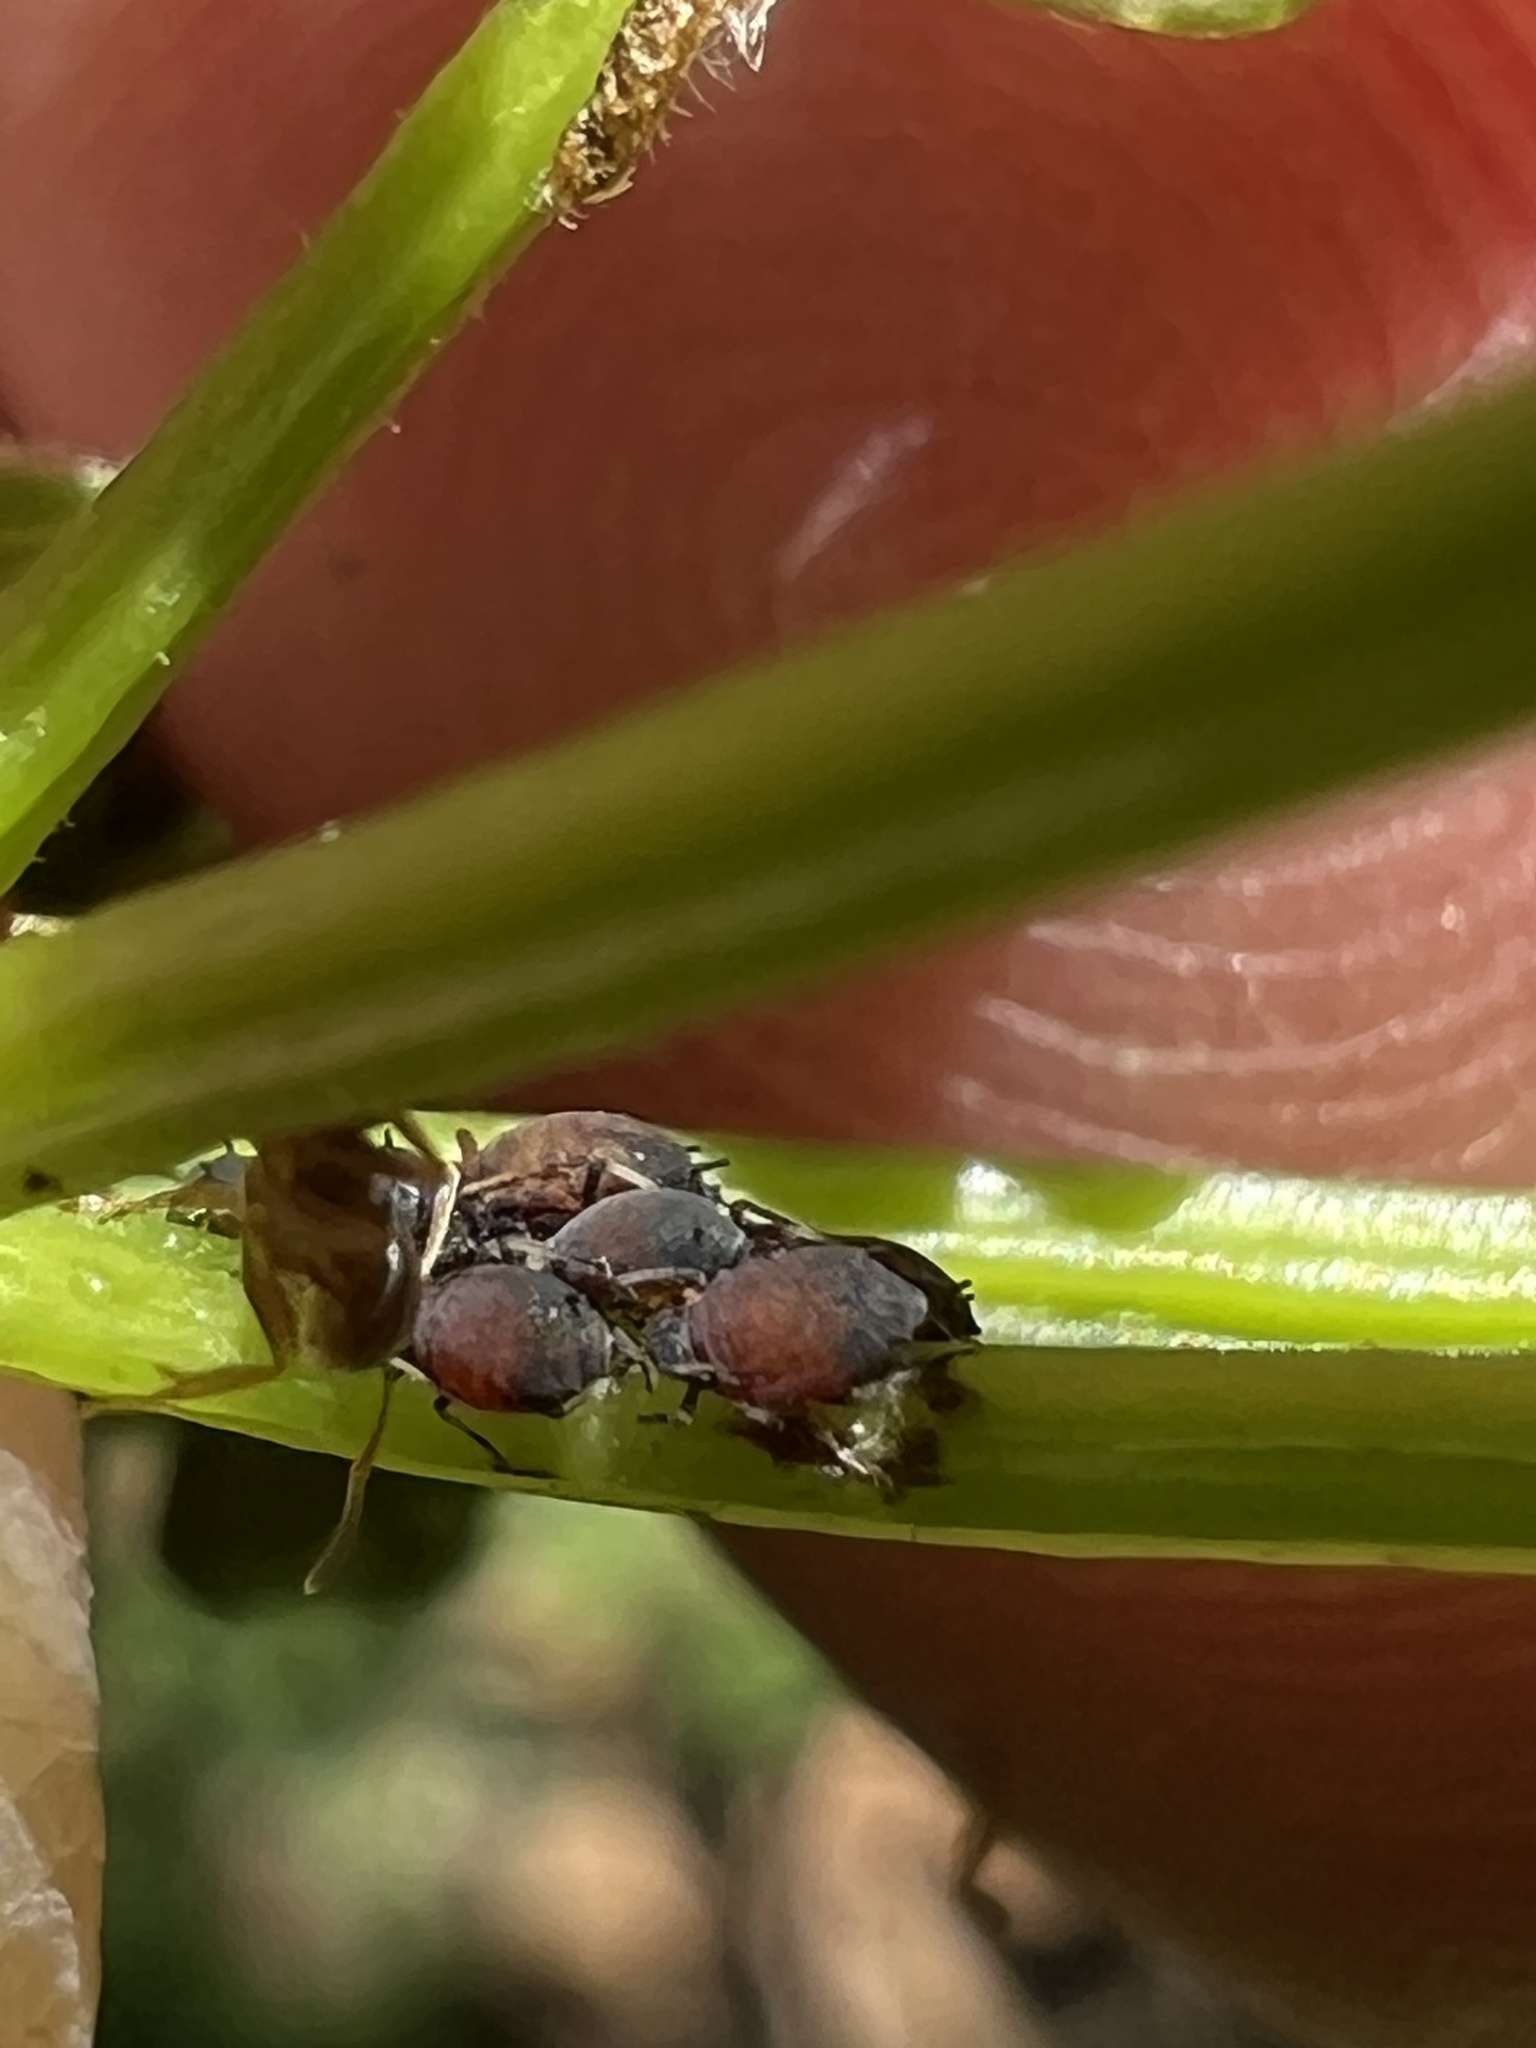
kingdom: Animalia
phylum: Arthropoda
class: Insecta
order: Hemiptera
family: Aphididae
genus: Aphis
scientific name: Aphis viburniphila
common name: Viburnum aphid
